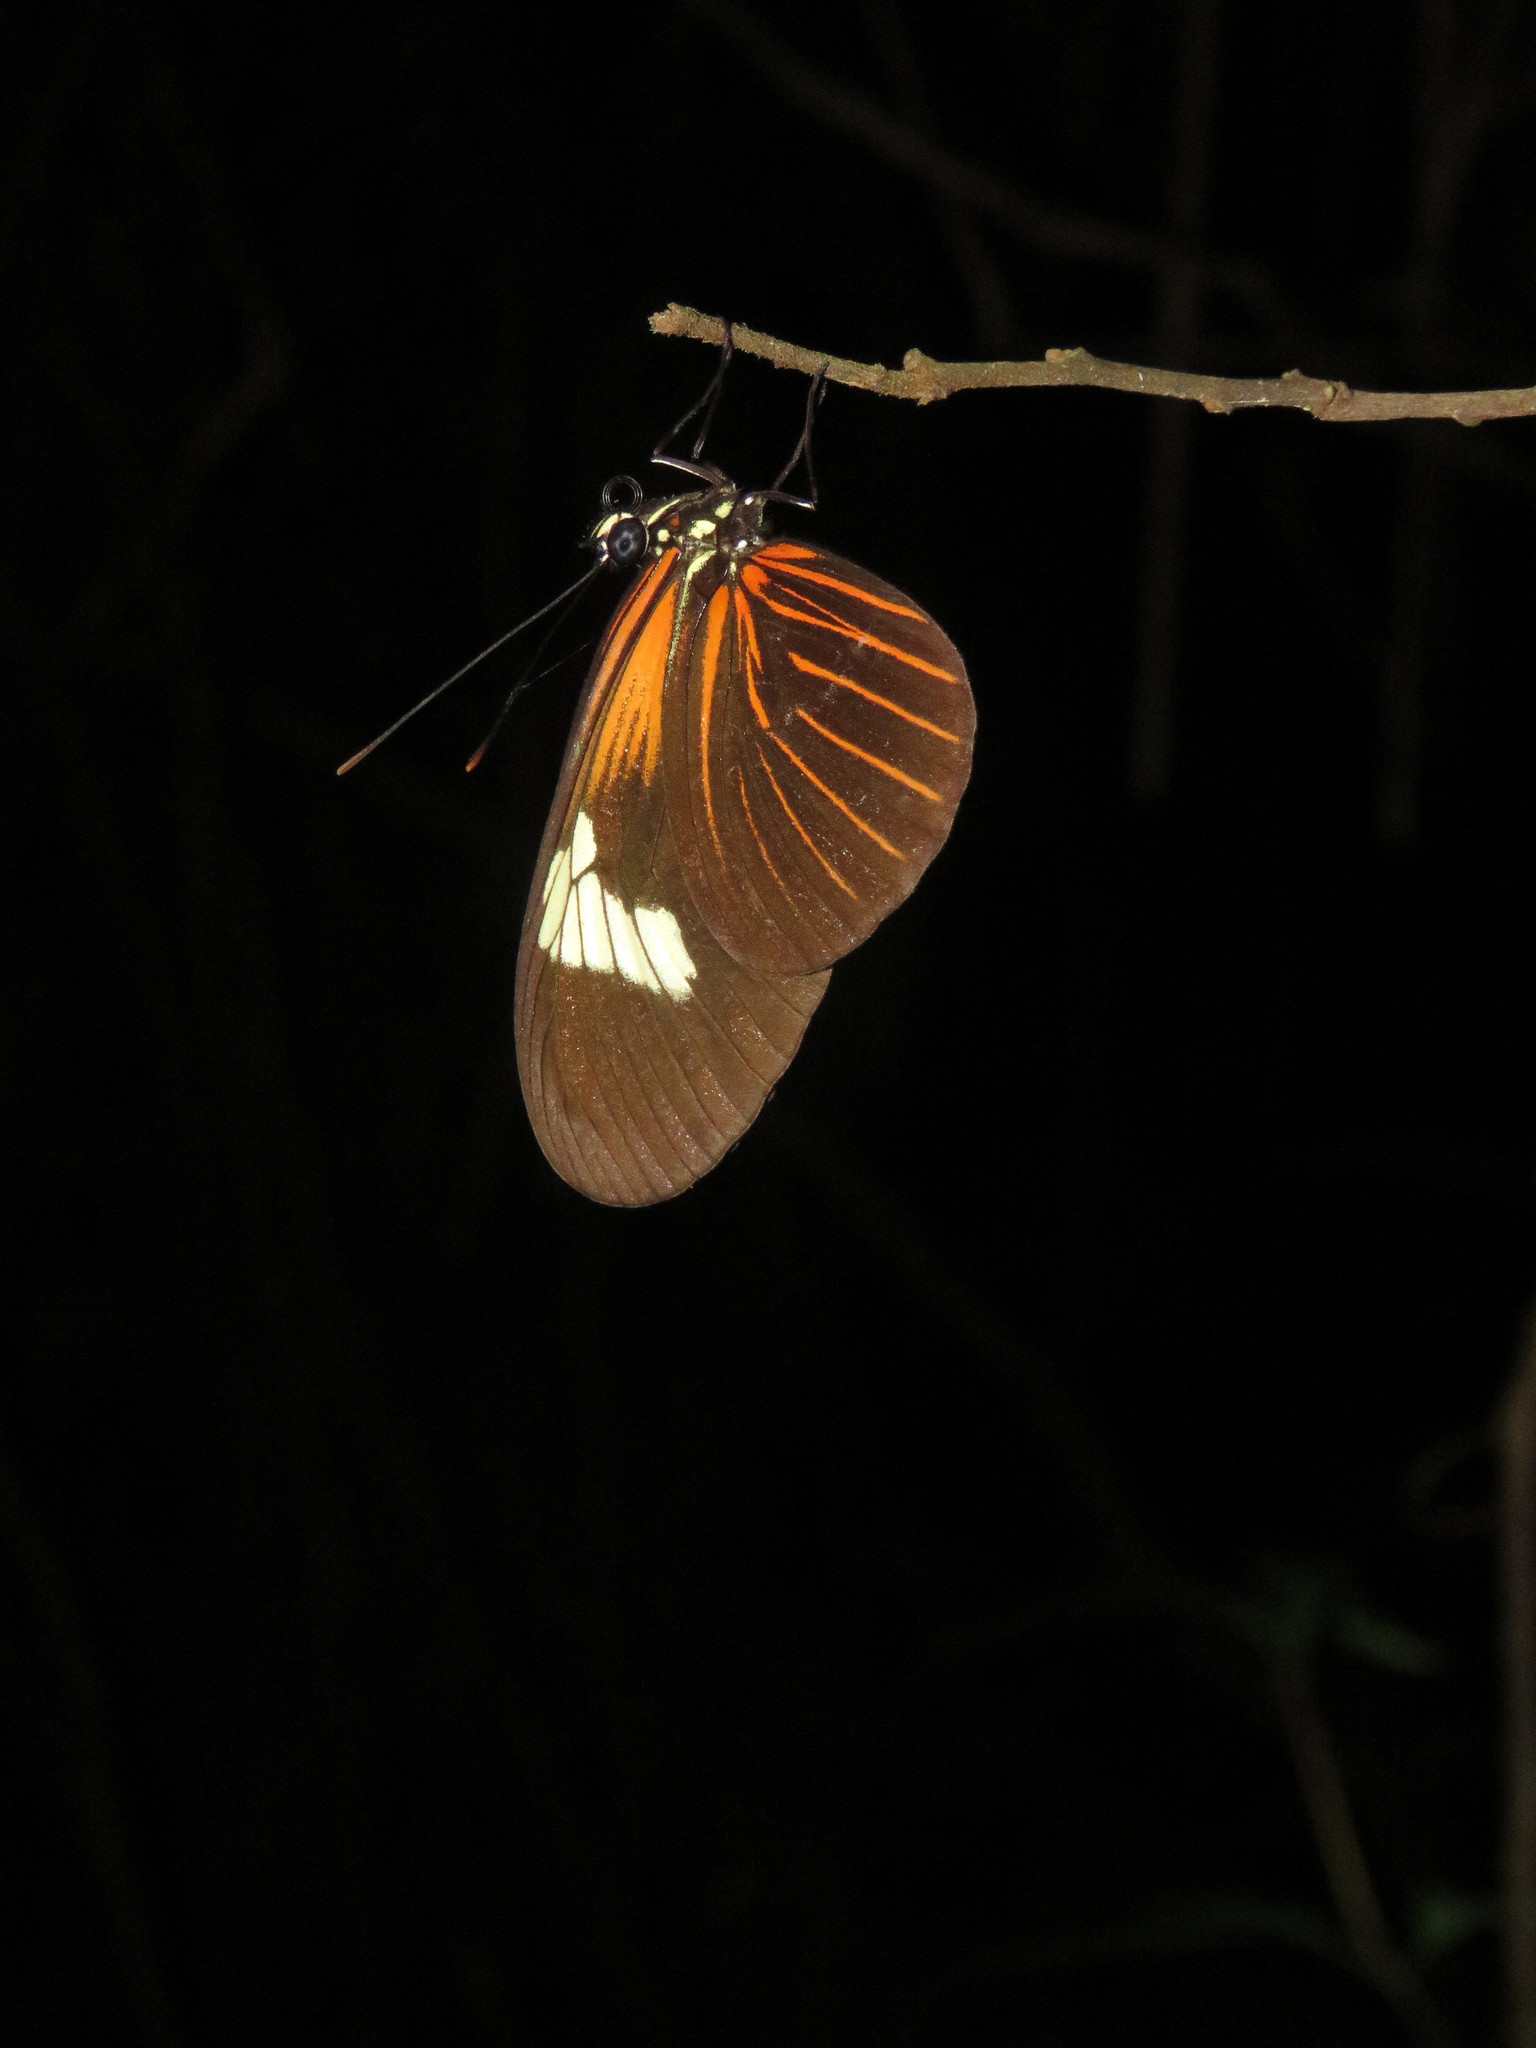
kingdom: Animalia
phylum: Arthropoda
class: Insecta
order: Lepidoptera
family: Nymphalidae
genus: Heliconius
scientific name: Heliconius erato
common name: Common patch longwing
